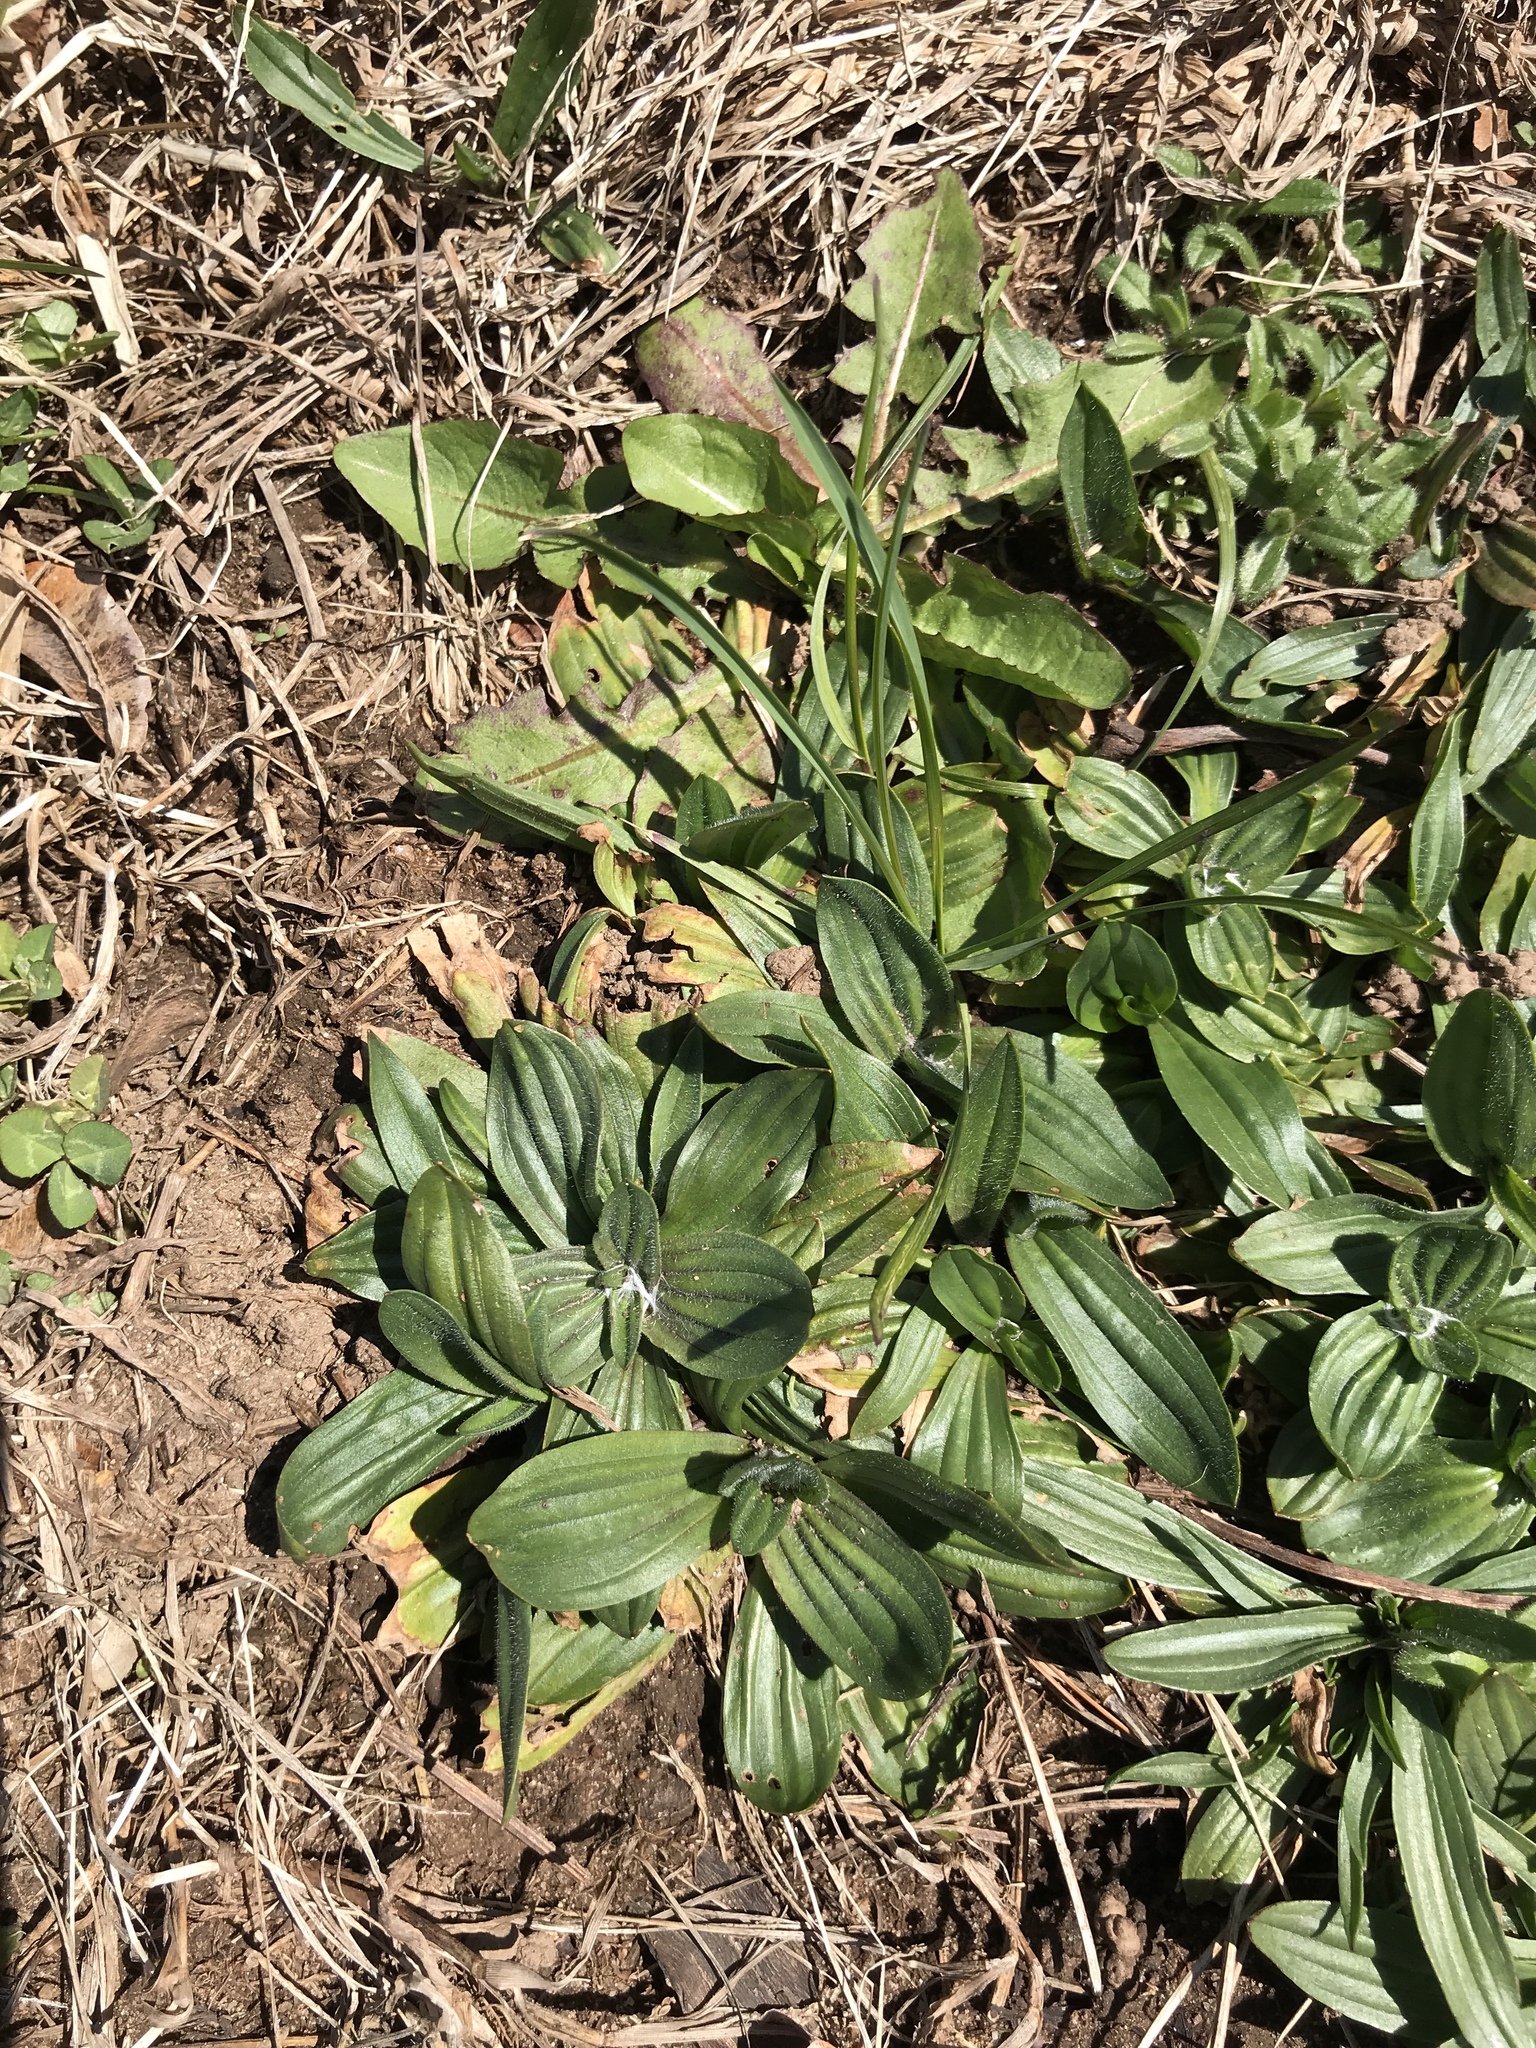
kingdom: Plantae
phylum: Tracheophyta
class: Magnoliopsida
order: Lamiales
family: Plantaginaceae
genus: Plantago
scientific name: Plantago lanceolata
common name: Ribwort plantain
